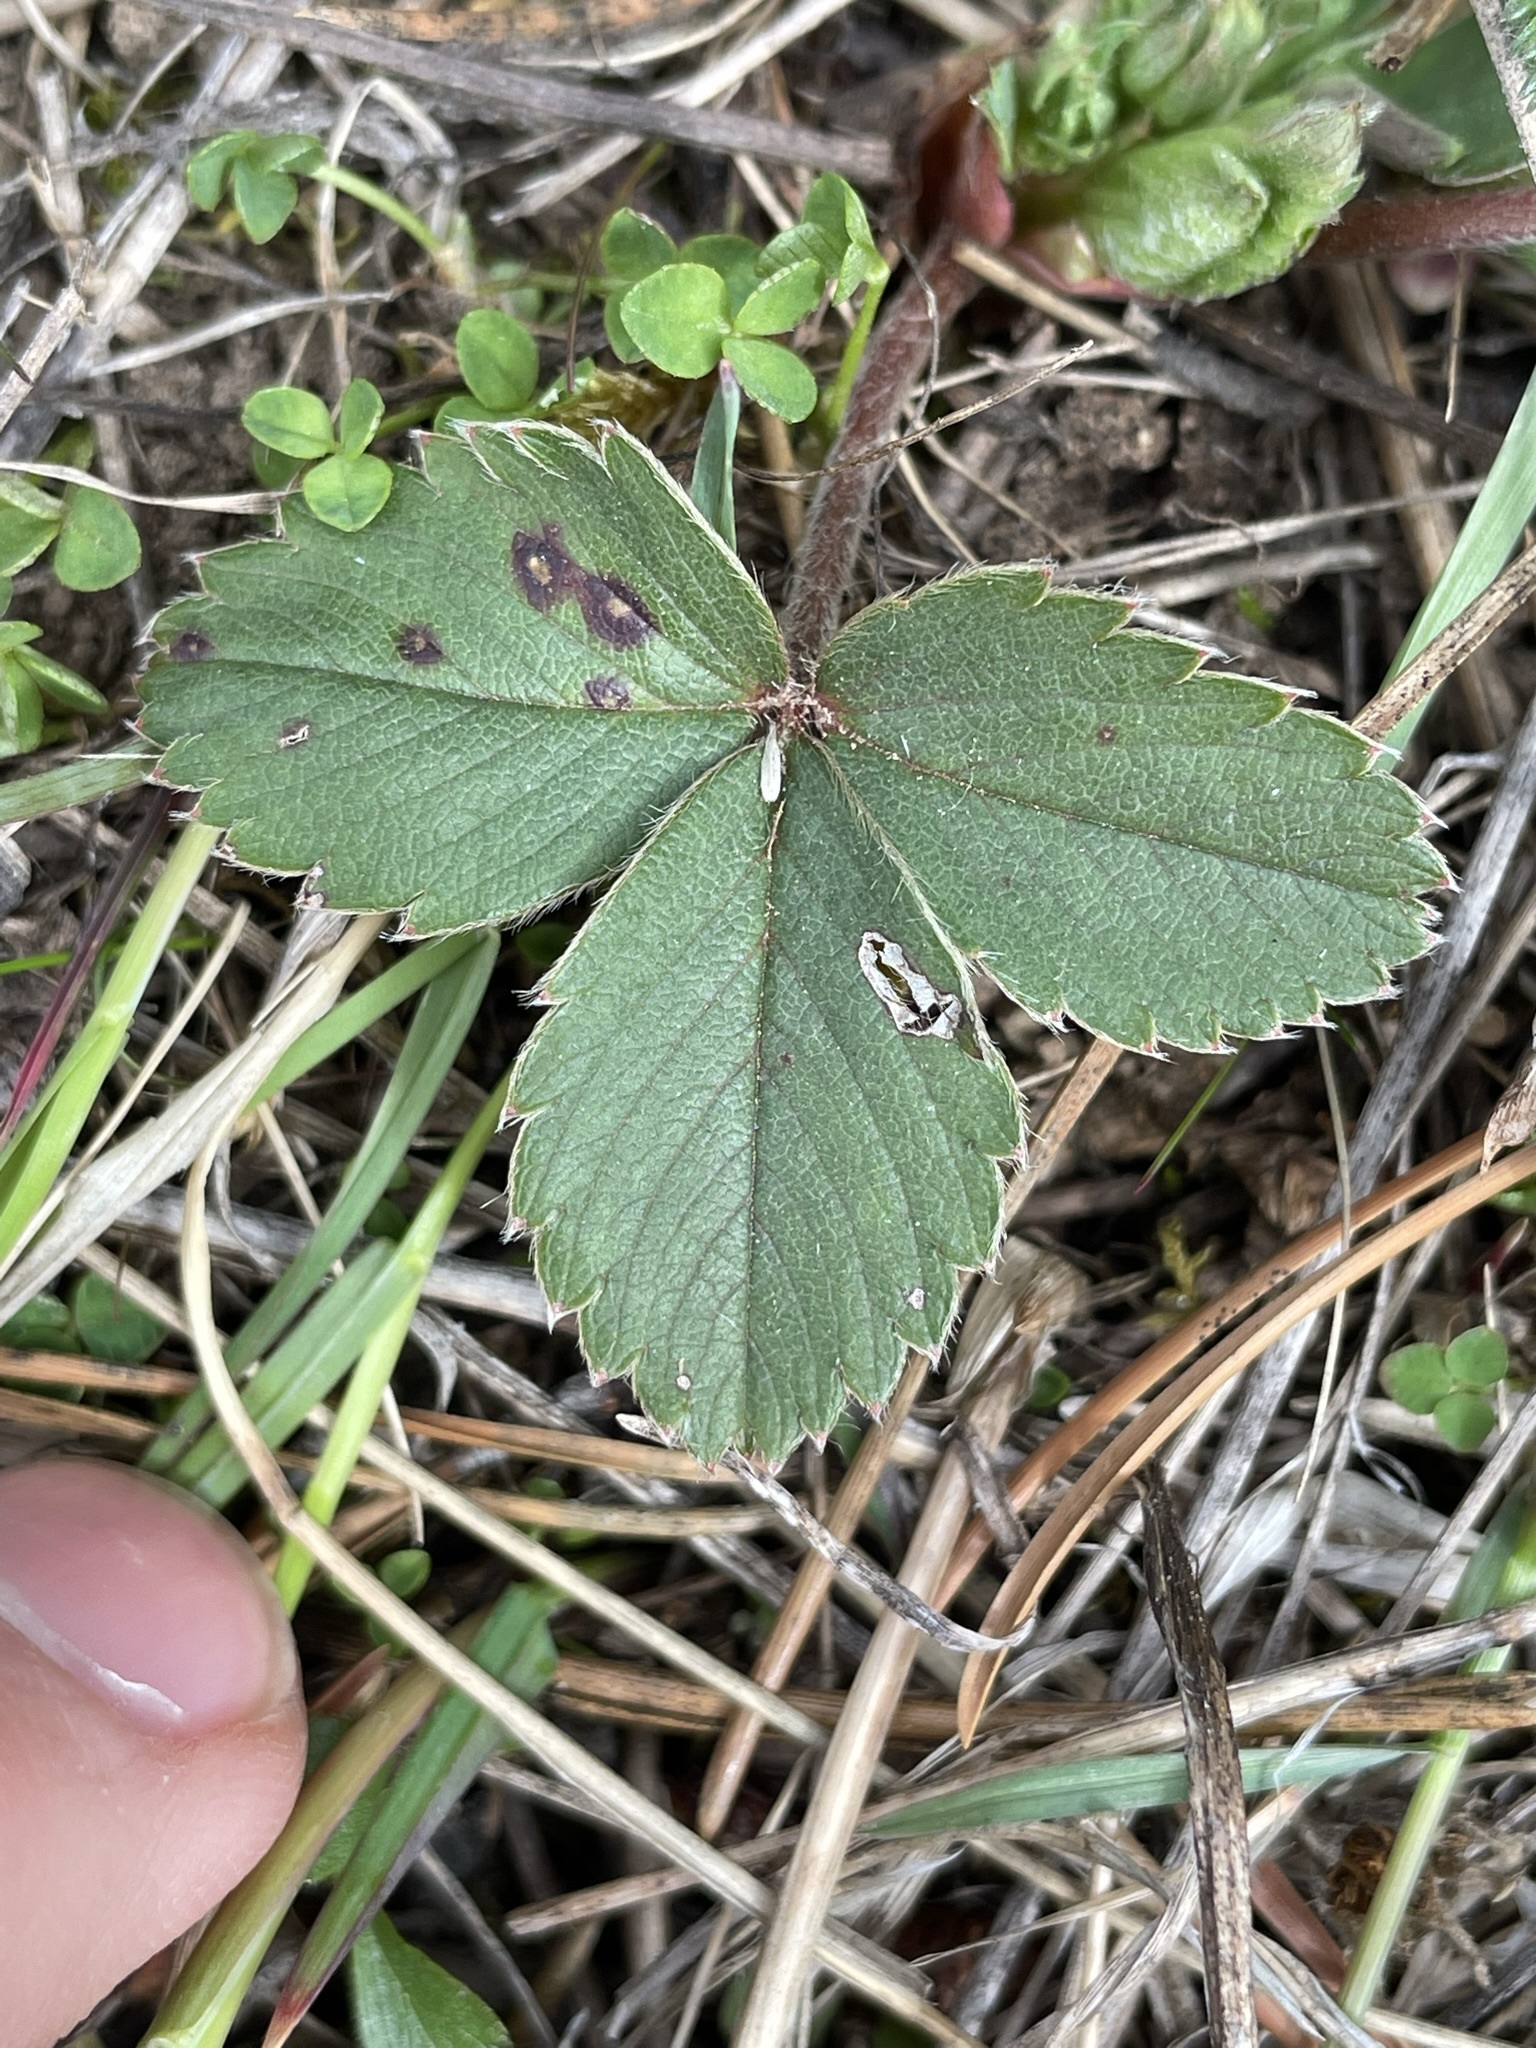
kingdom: Plantae
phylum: Tracheophyta
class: Magnoliopsida
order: Rosales
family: Rosaceae
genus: Fragaria
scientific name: Fragaria virginiana
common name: Thickleaved wild strawberry
